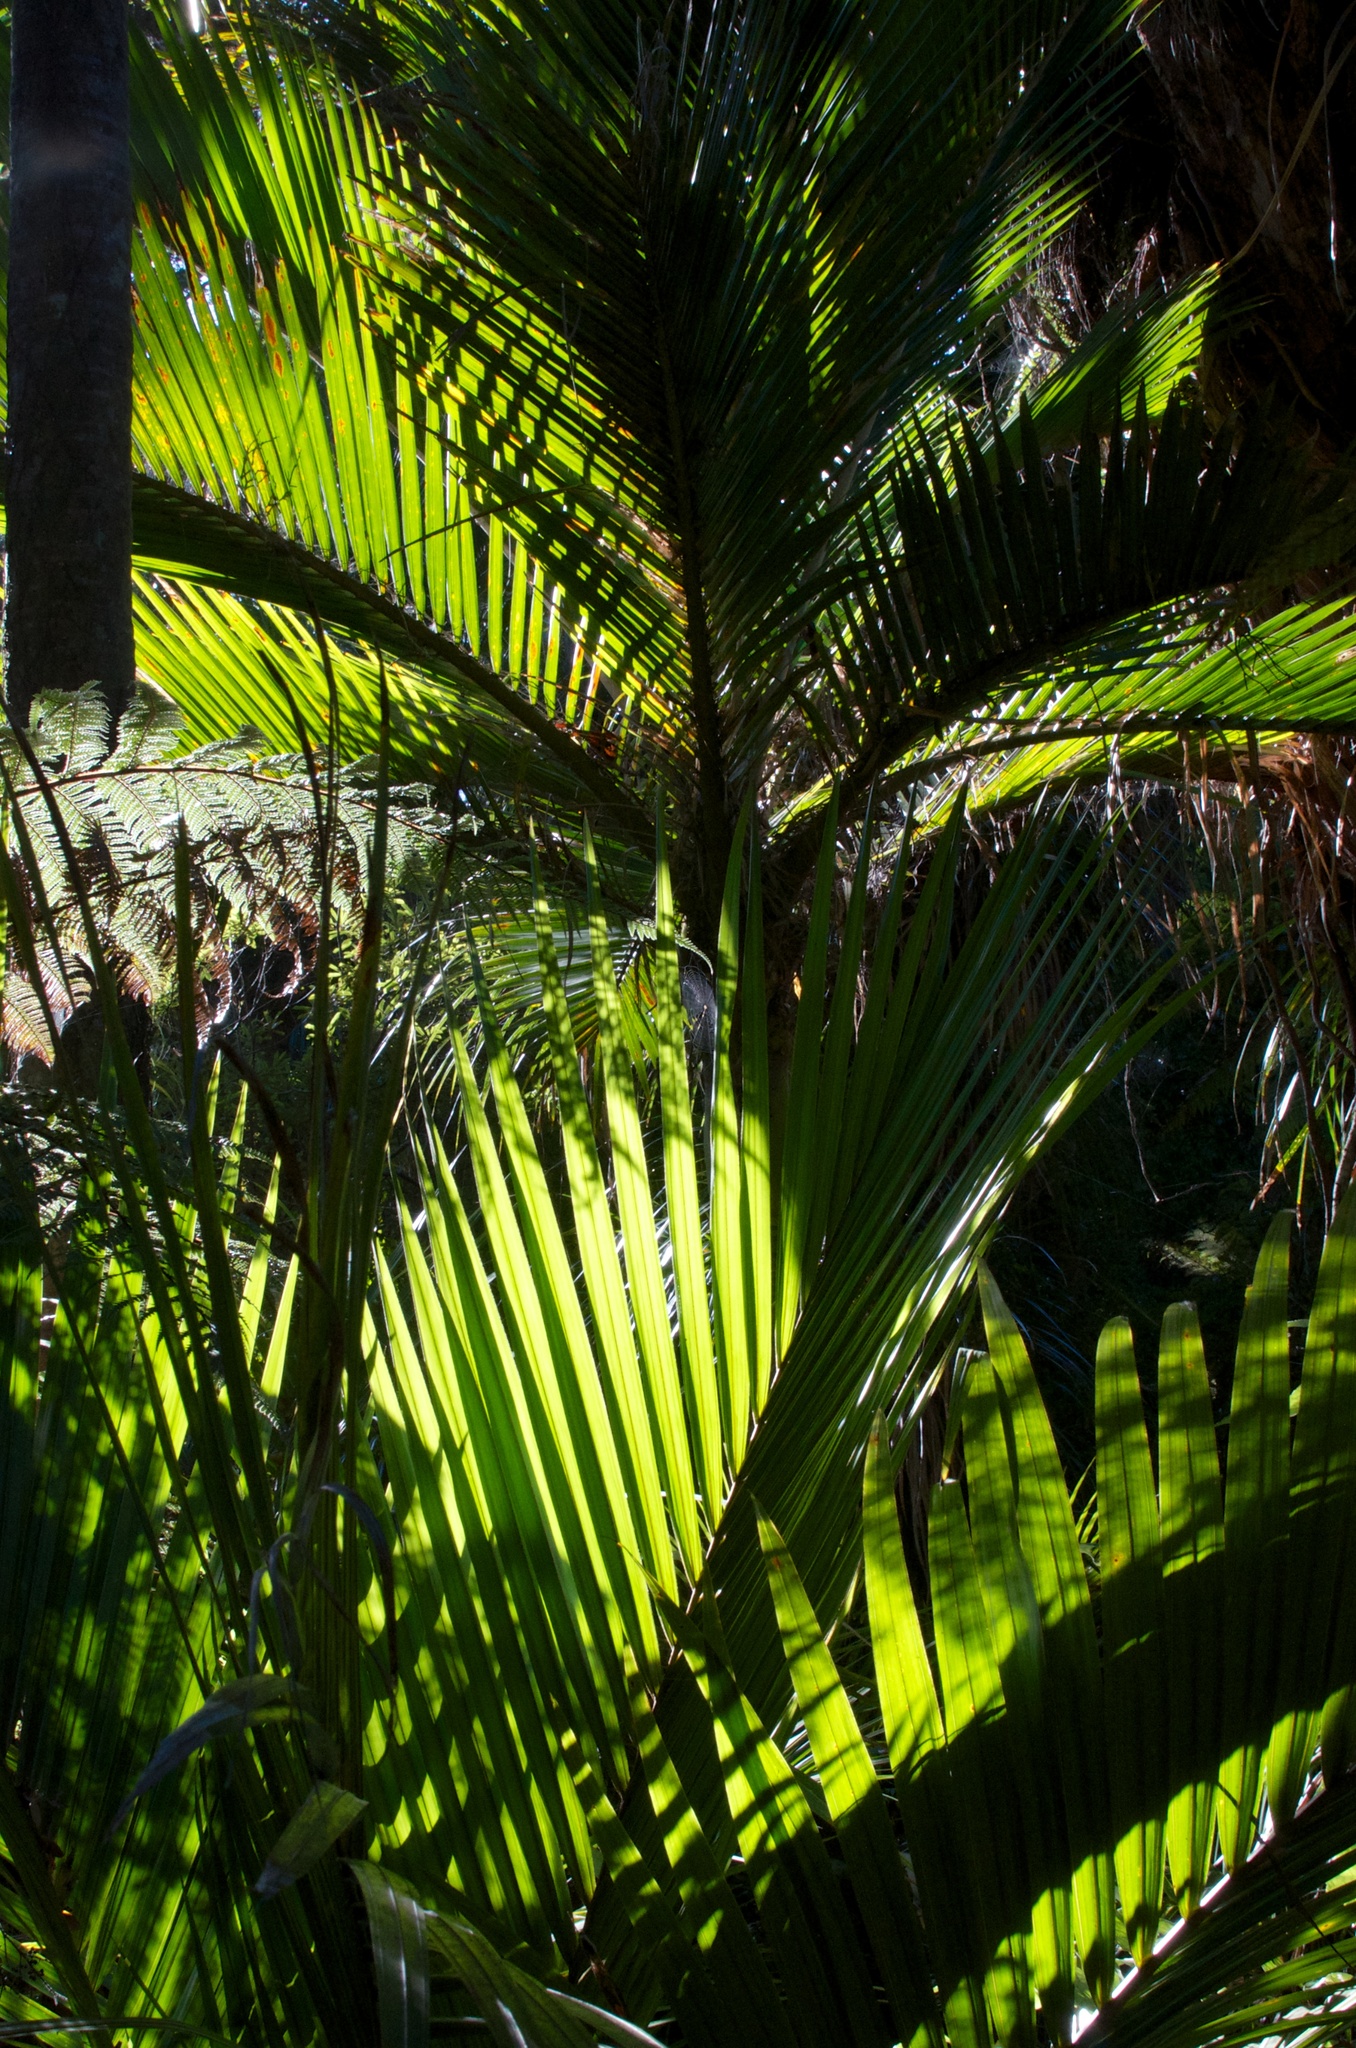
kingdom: Plantae
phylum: Tracheophyta
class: Liliopsida
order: Arecales
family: Arecaceae
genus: Rhopalostylis
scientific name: Rhopalostylis sapida
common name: Feather-duster palm
